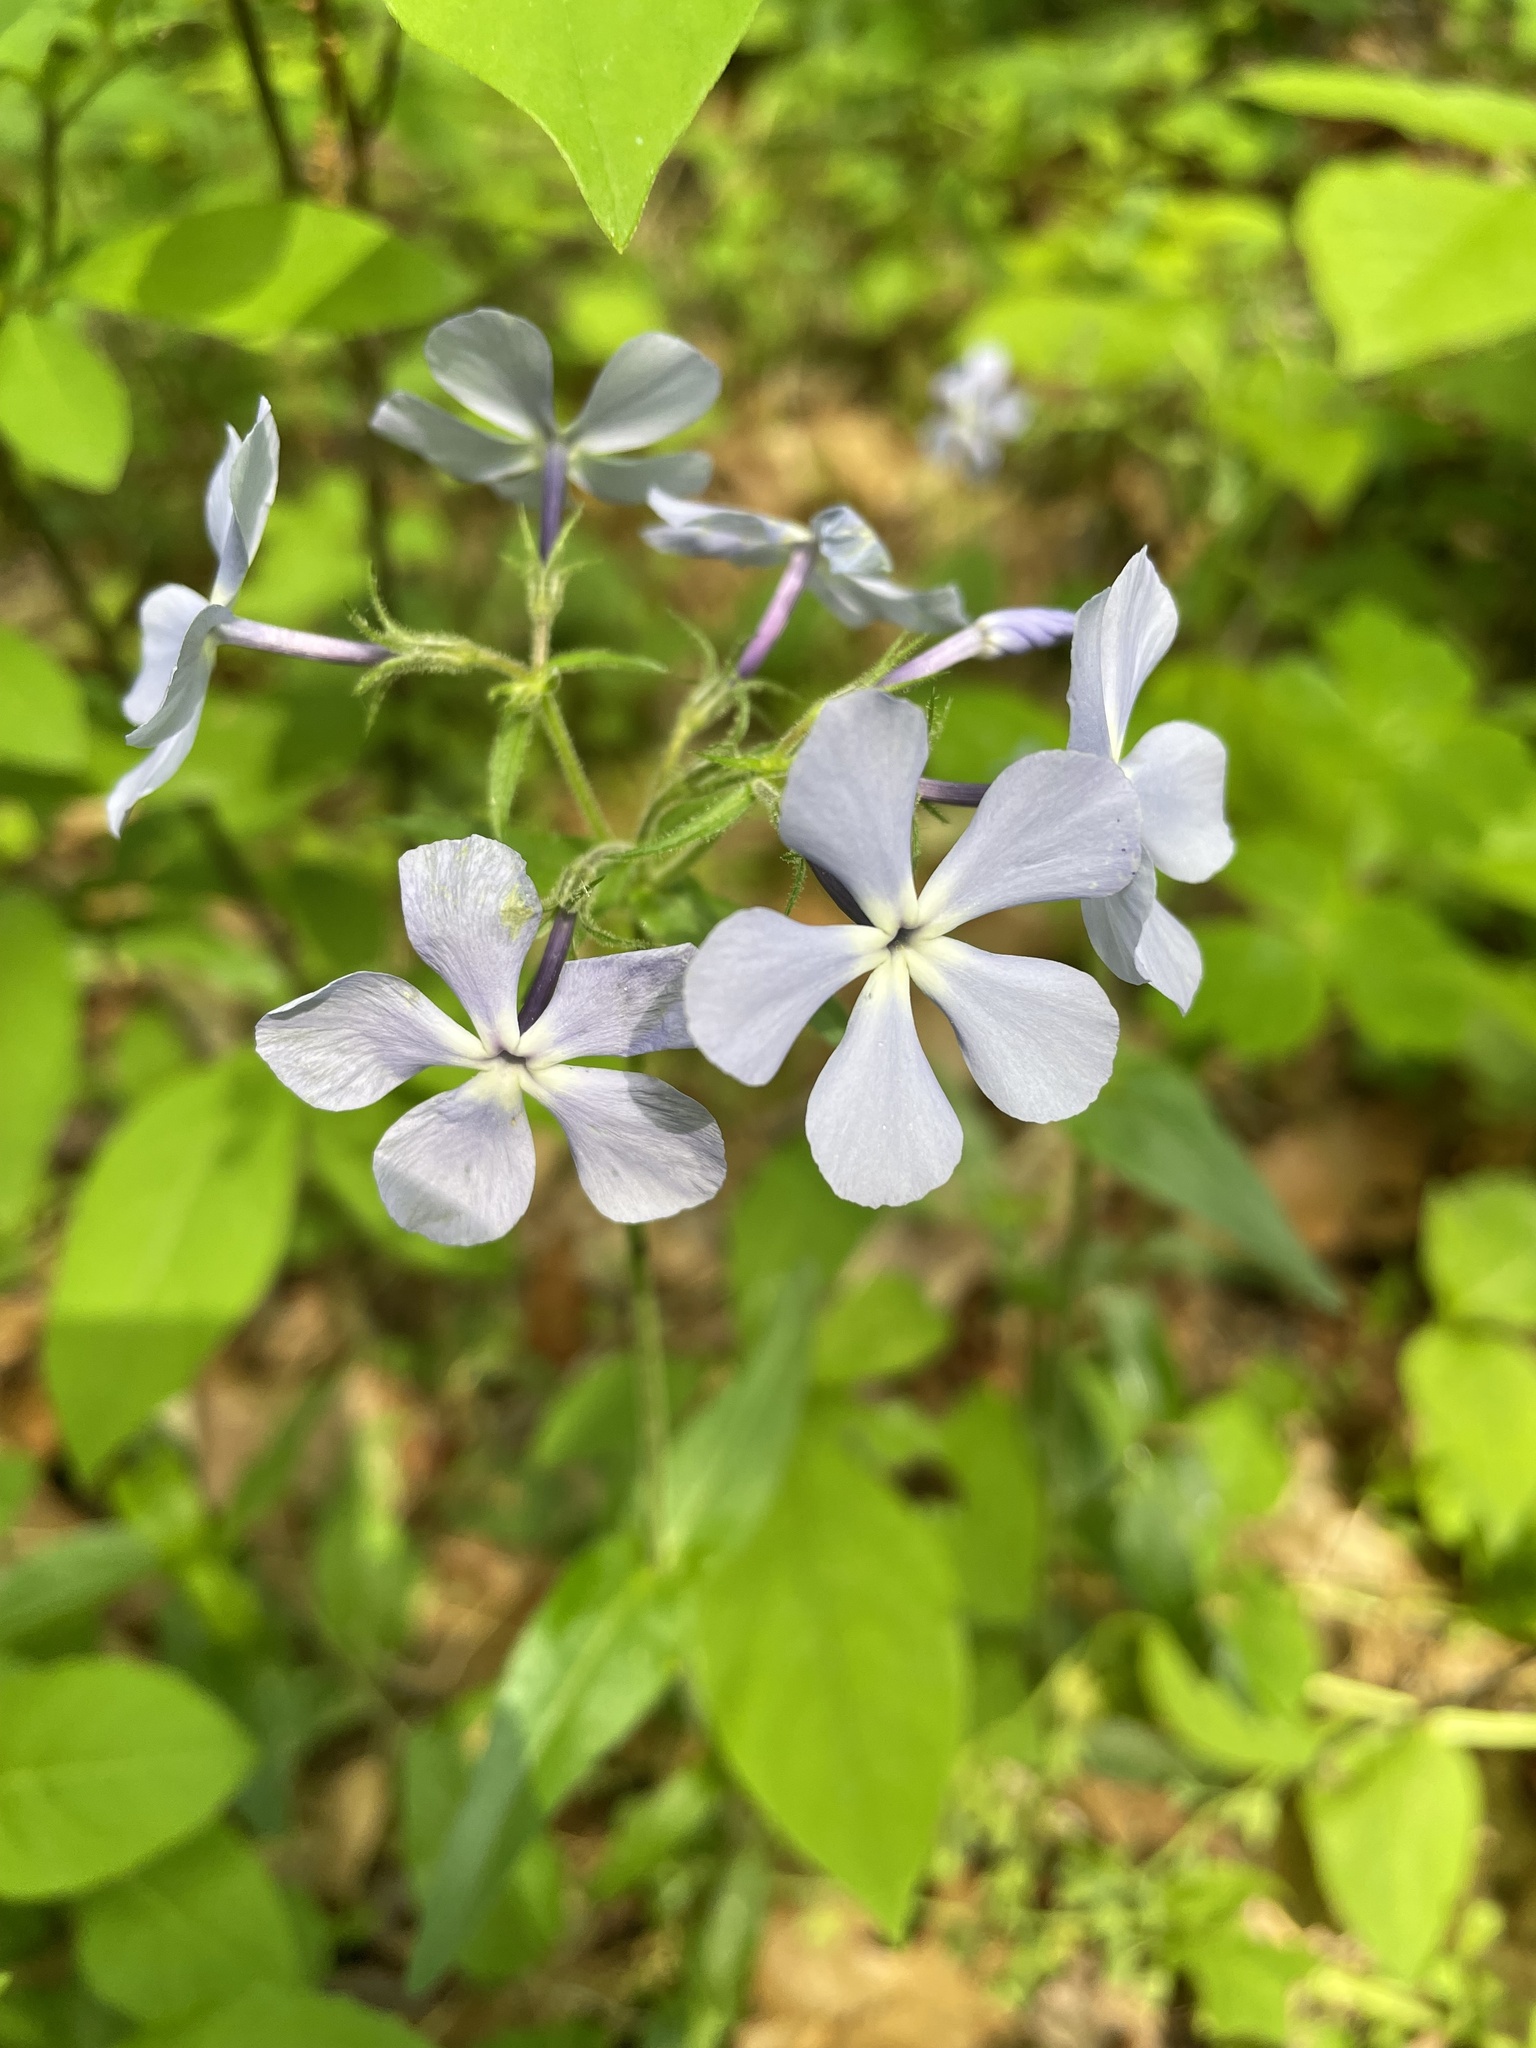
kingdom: Plantae
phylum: Tracheophyta
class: Magnoliopsida
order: Ericales
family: Polemoniaceae
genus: Phlox
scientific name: Phlox divaricata
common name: Blue phlox
